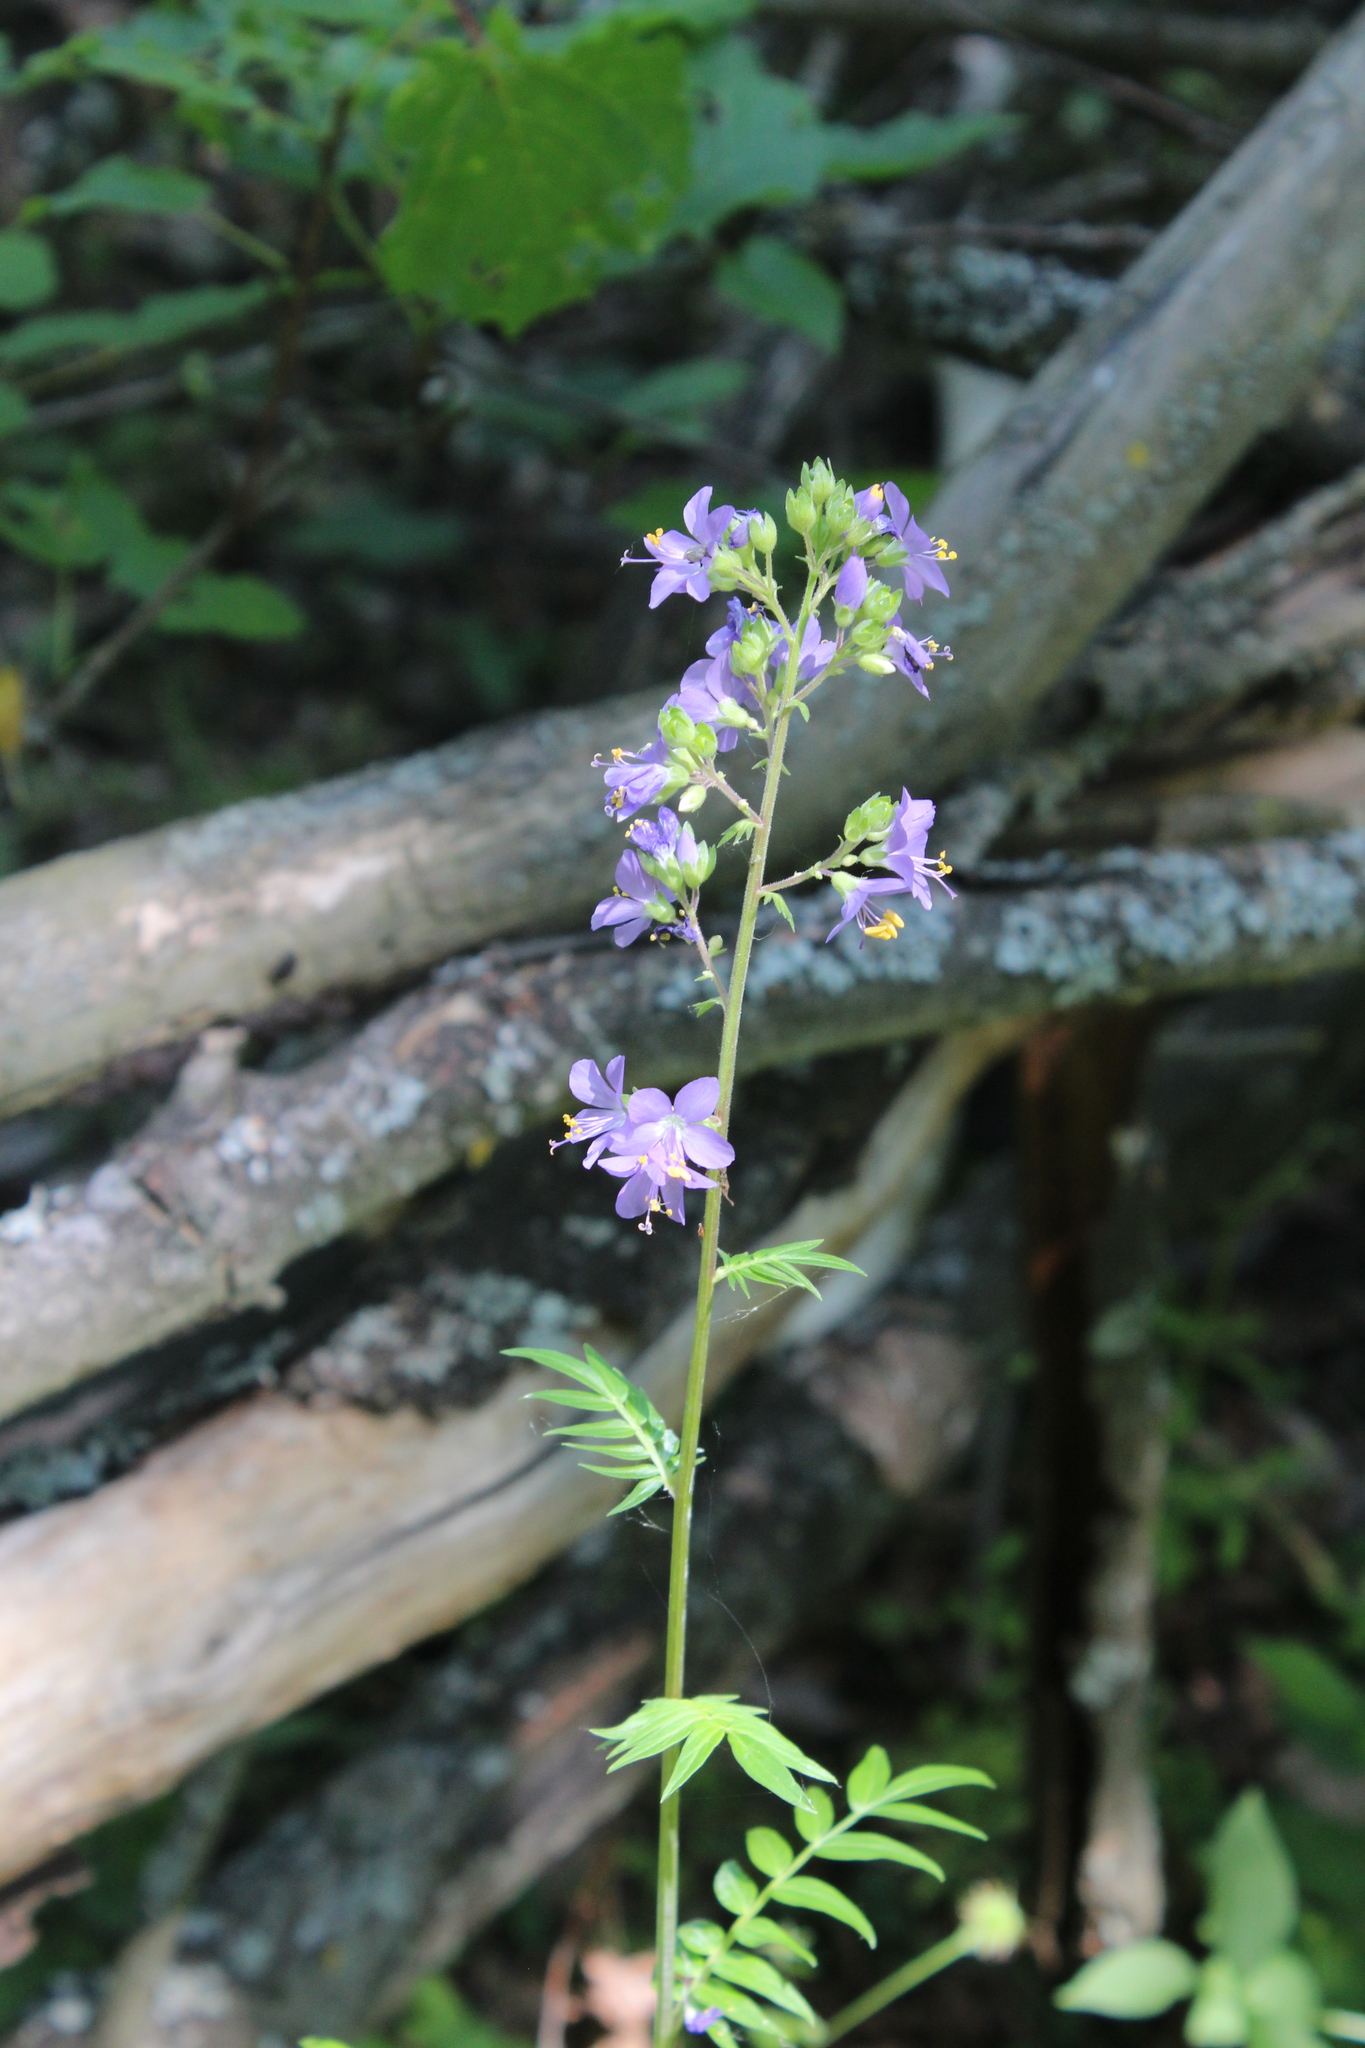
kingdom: Plantae
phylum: Tracheophyta
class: Magnoliopsida
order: Ericales
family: Polemoniaceae
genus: Polemonium
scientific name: Polemonium caeruleum
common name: Jacob's-ladder
